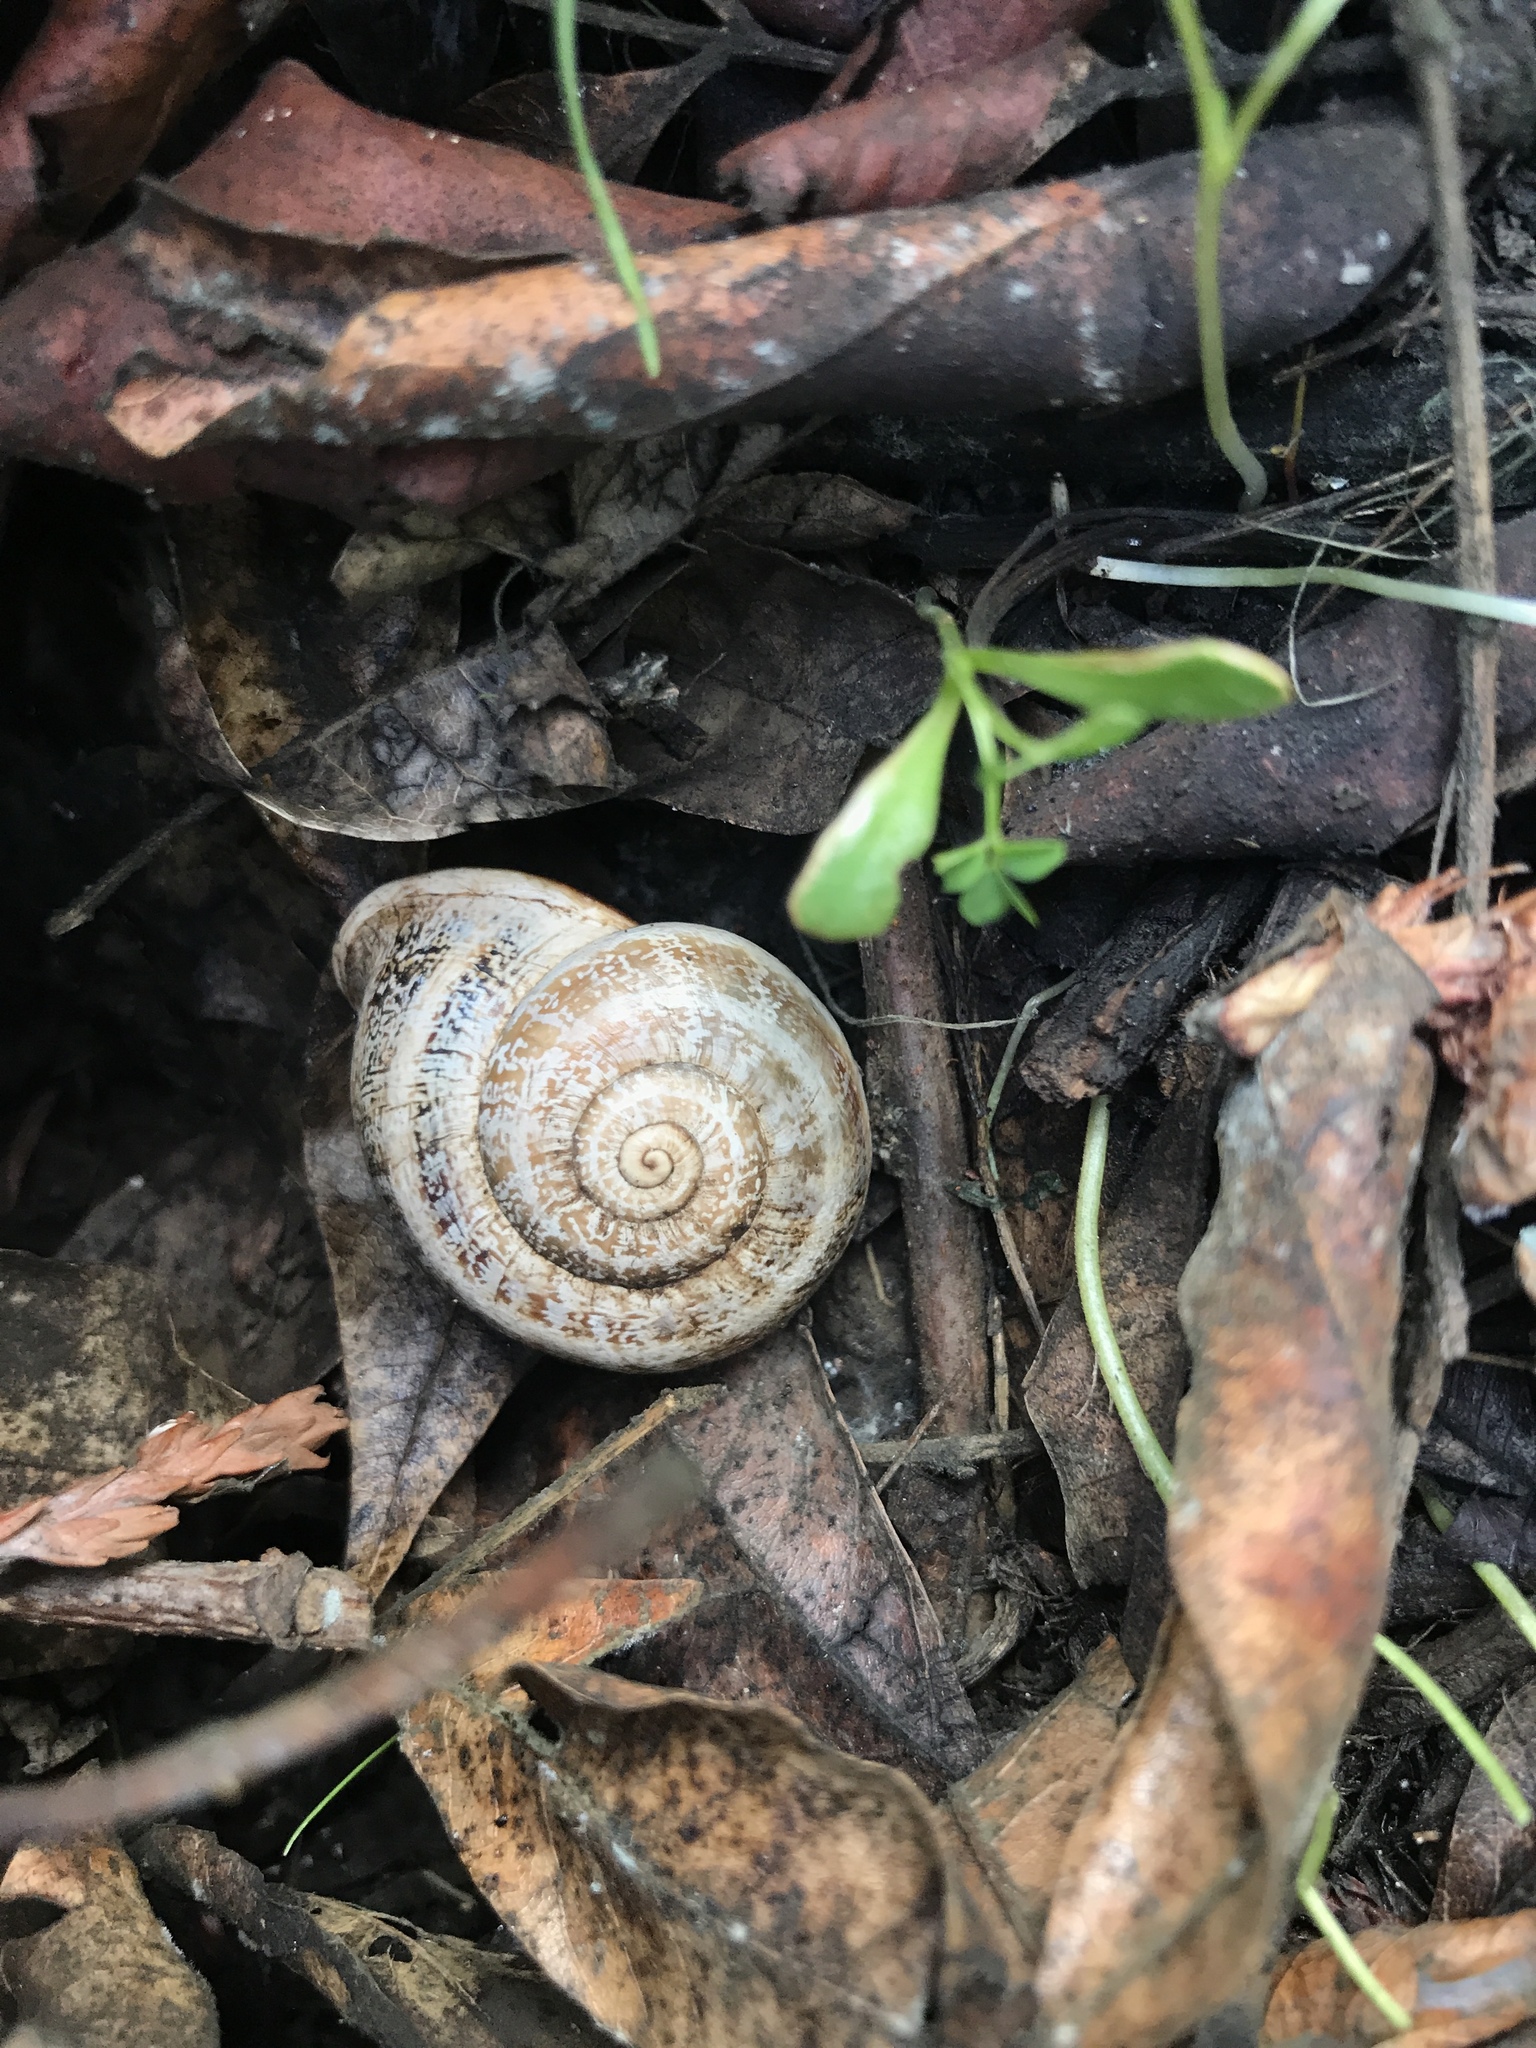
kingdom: Animalia
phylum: Mollusca
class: Gastropoda
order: Stylommatophora
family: Helicidae
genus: Otala
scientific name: Otala lactea
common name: Milk snail
